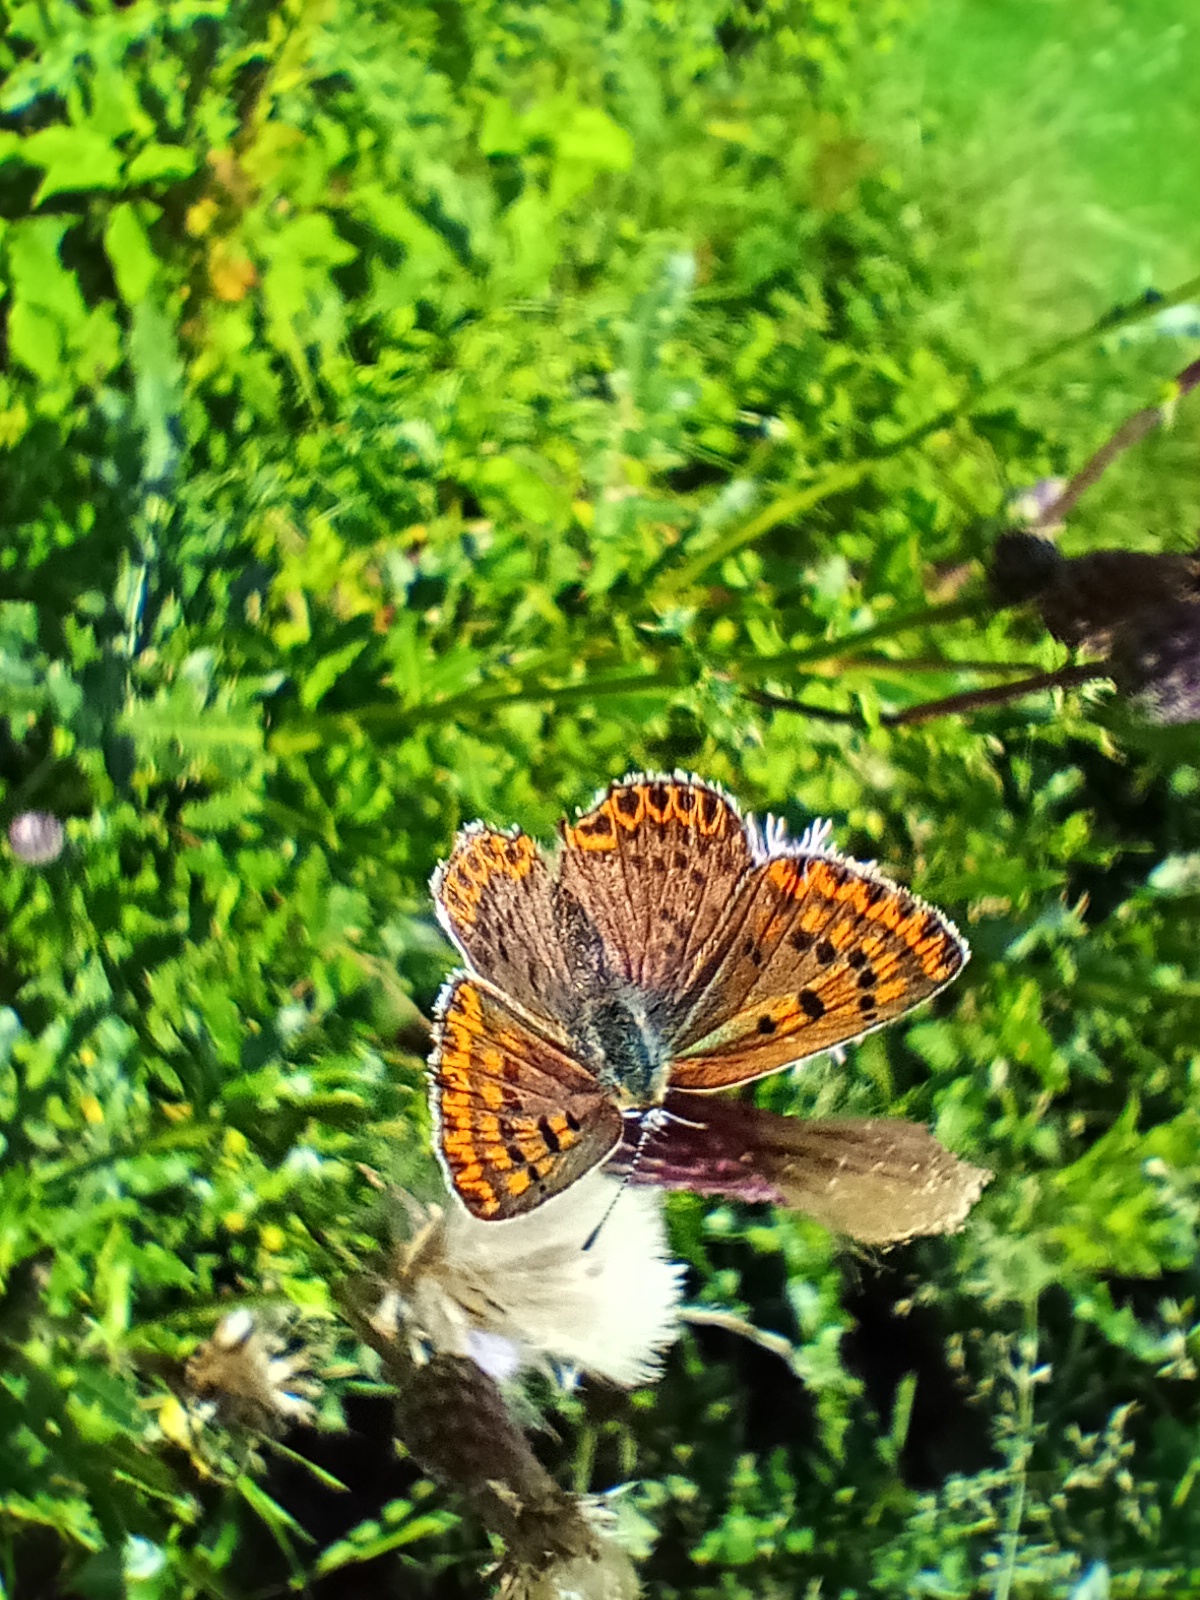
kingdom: Animalia
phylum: Arthropoda
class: Insecta
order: Lepidoptera
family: Lycaenidae
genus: Loweia
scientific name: Loweia tityrus
